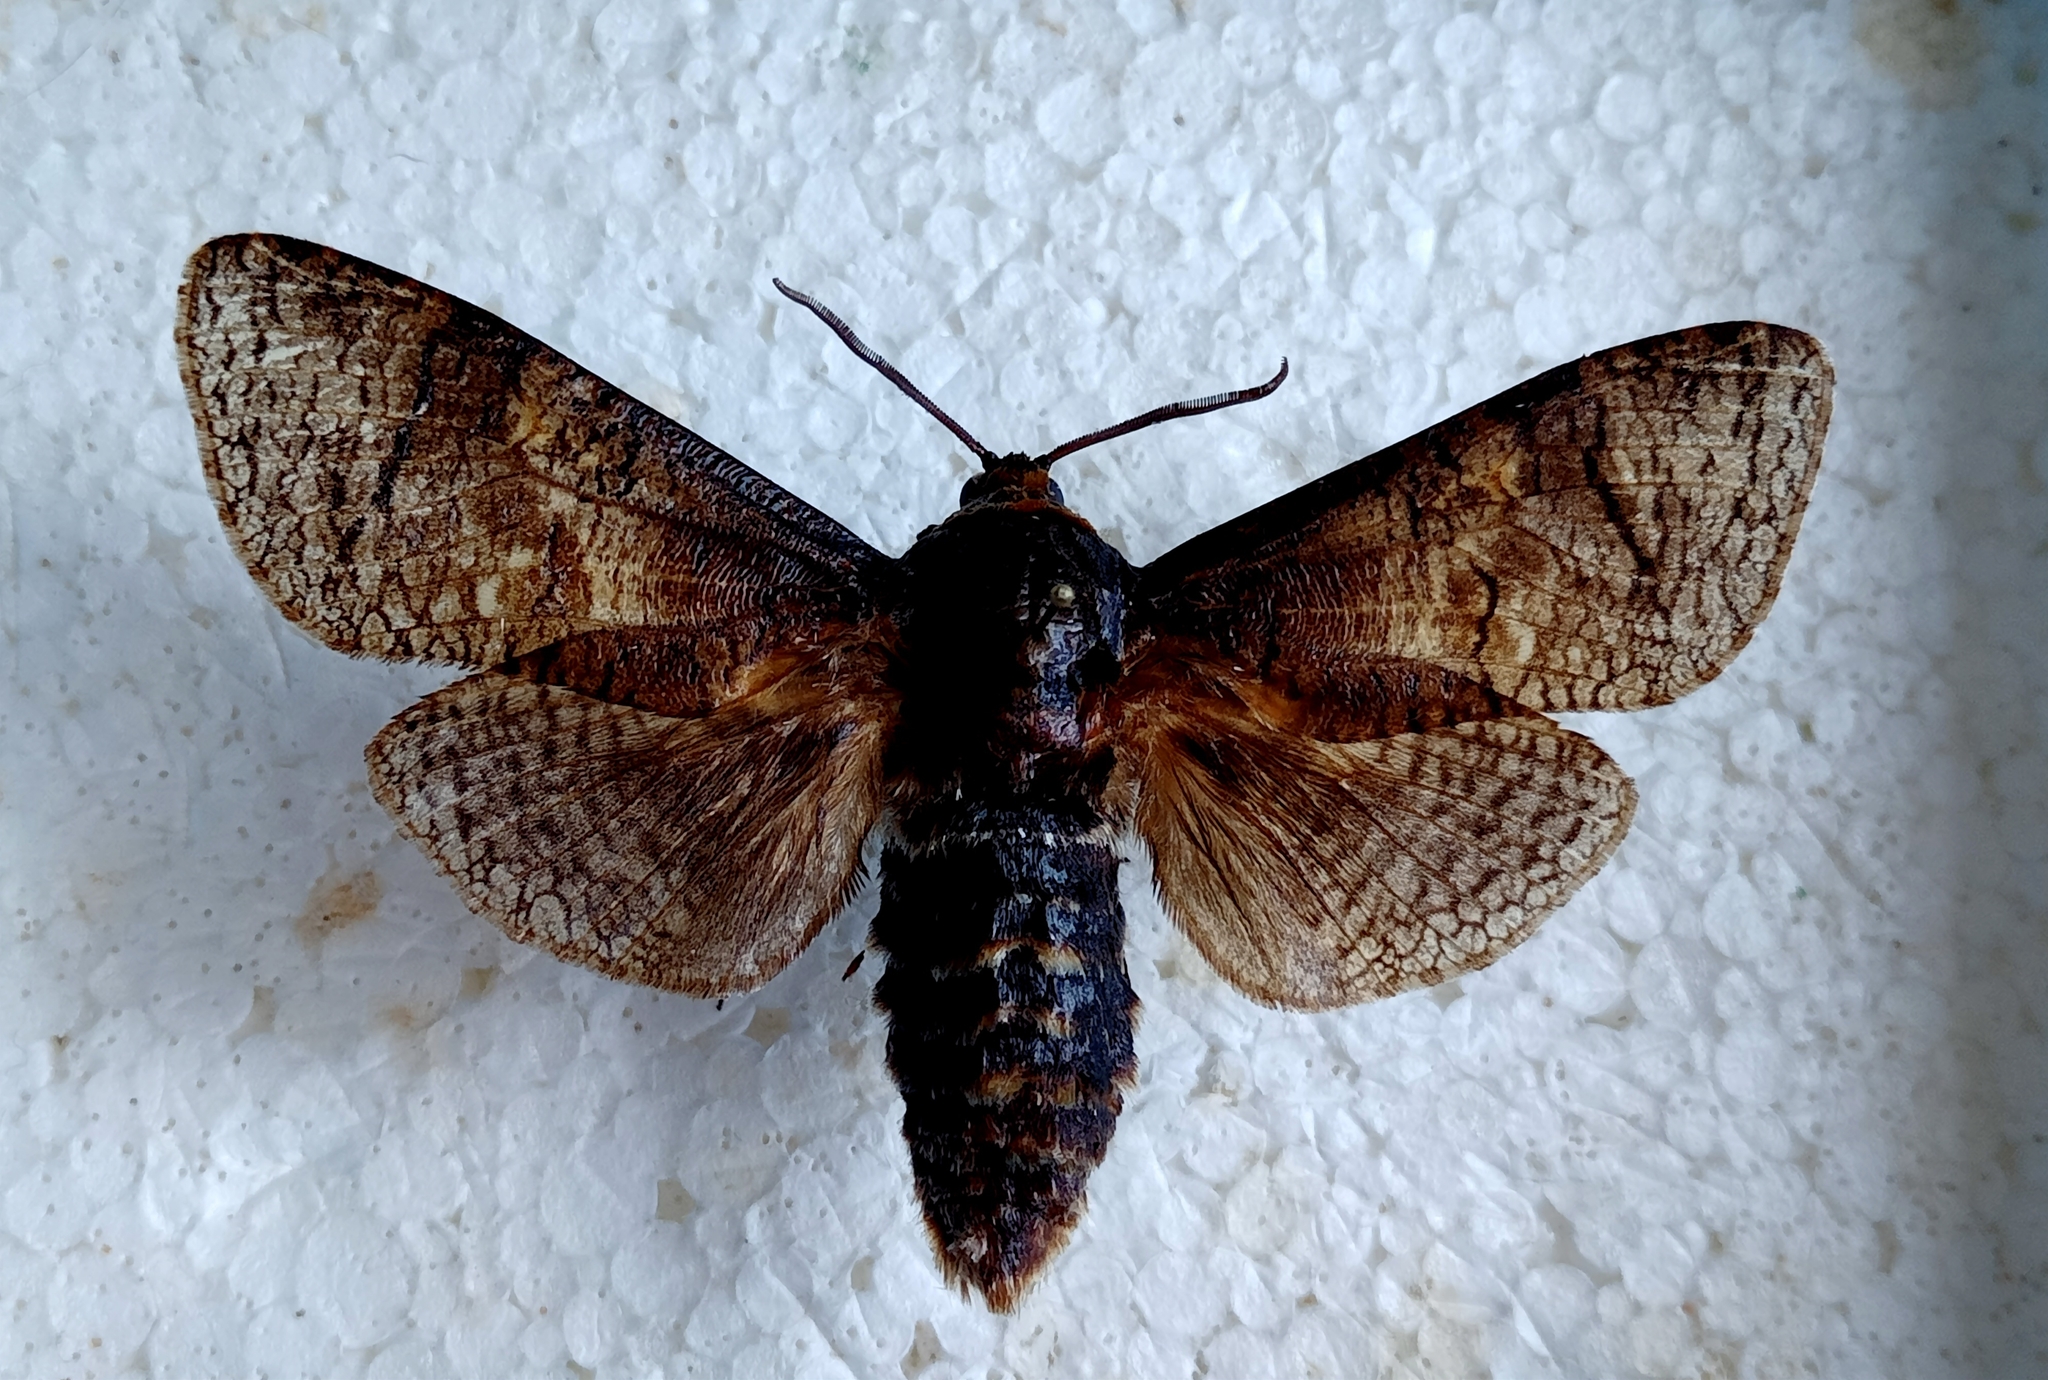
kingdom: Animalia
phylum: Arthropoda
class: Insecta
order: Lepidoptera
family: Cossidae
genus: Cossus
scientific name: Cossus cossus
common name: Goat moth
